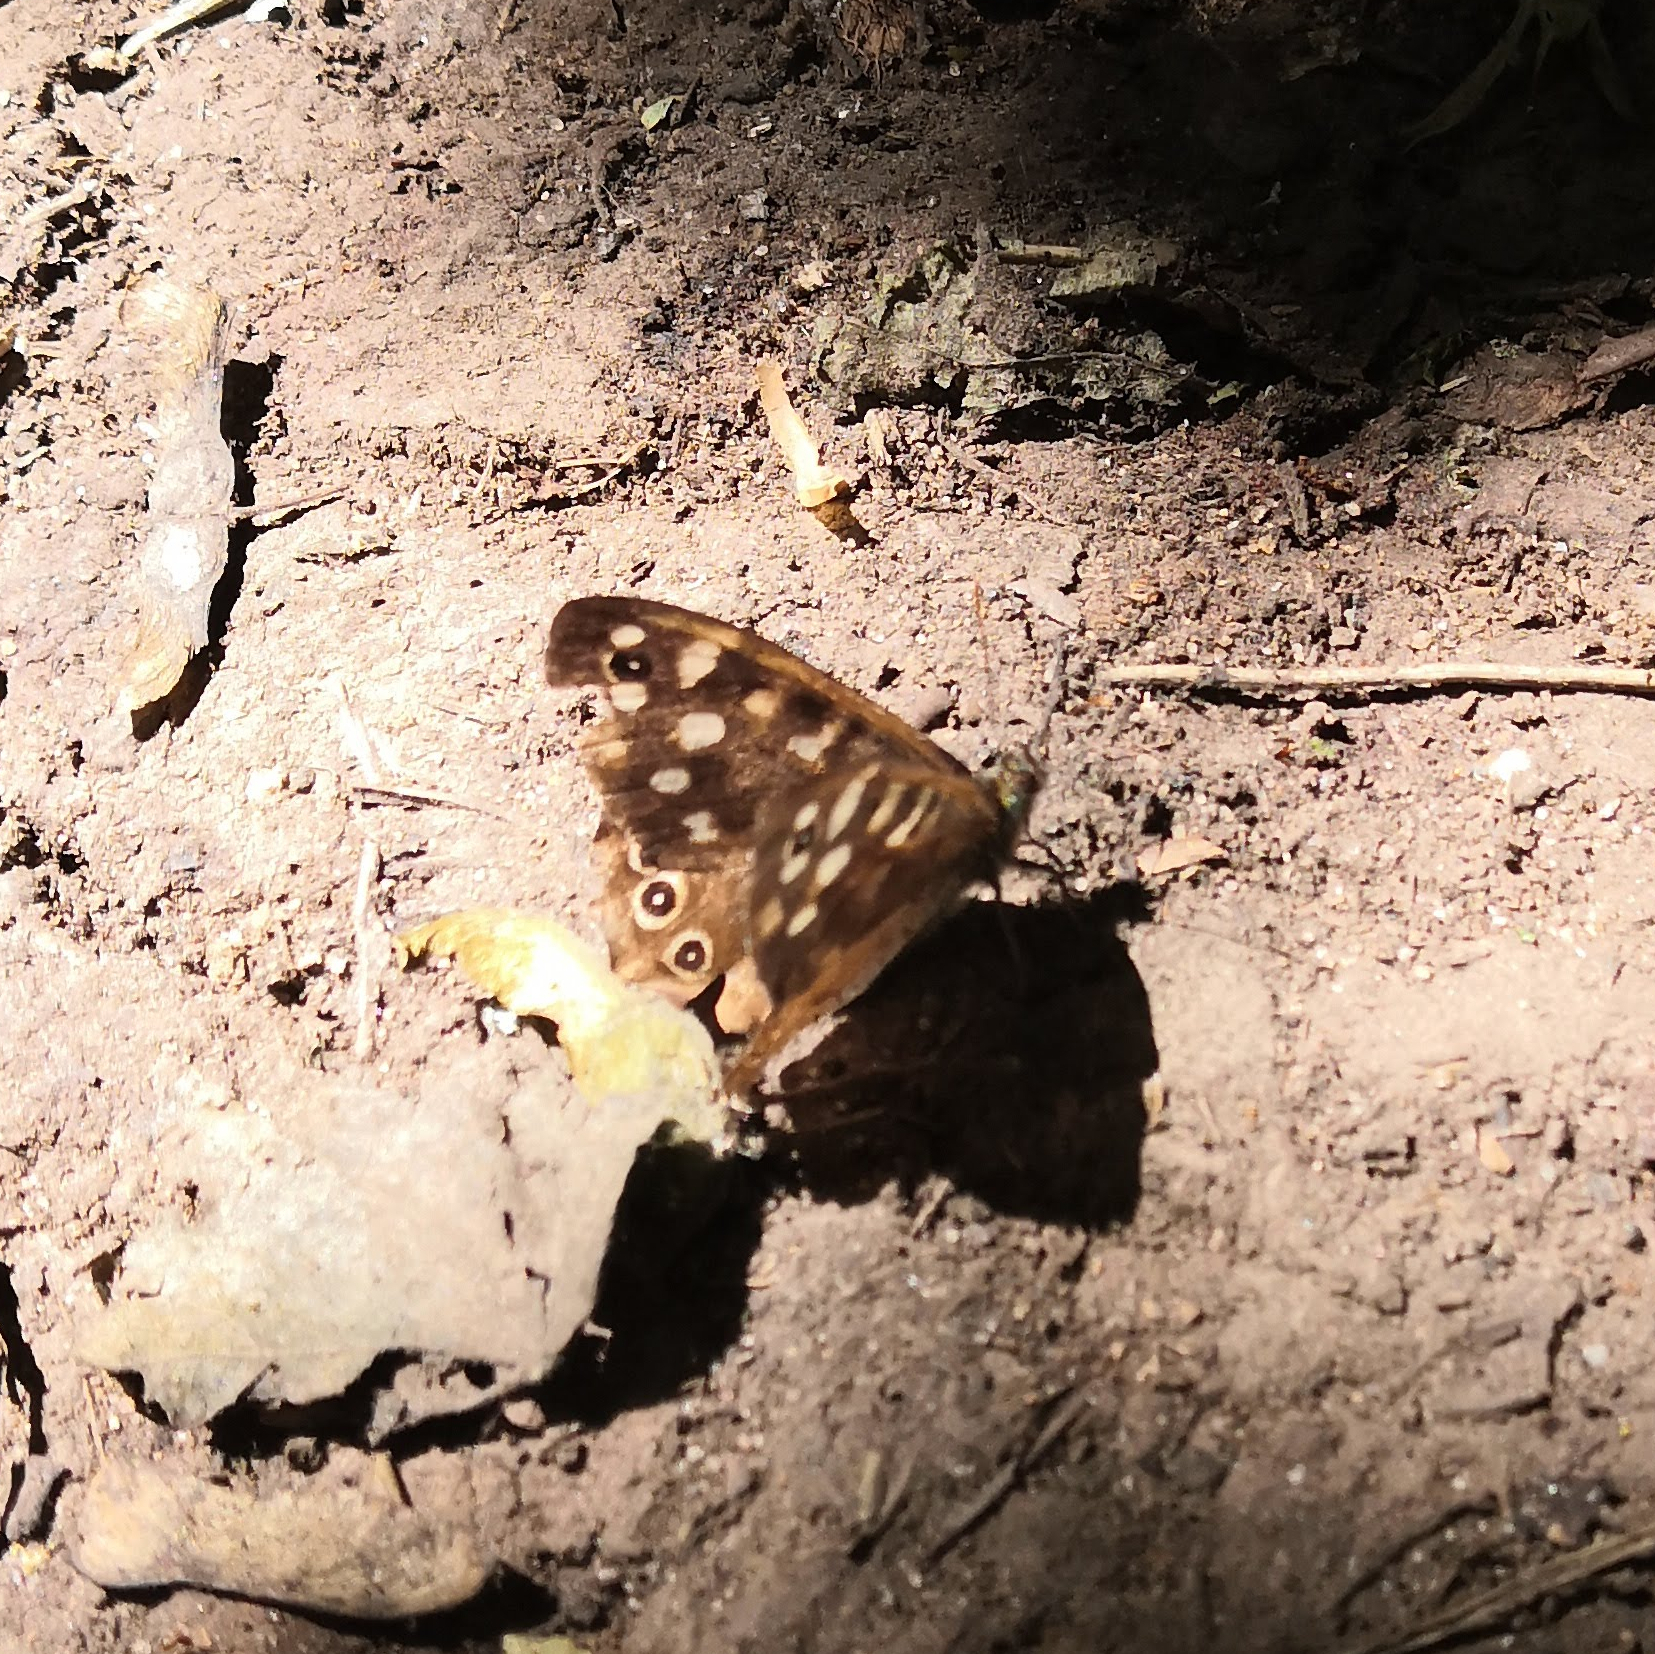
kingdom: Animalia
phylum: Arthropoda
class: Insecta
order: Lepidoptera
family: Nymphalidae
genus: Pararge
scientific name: Pararge aegeria
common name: Speckled wood
